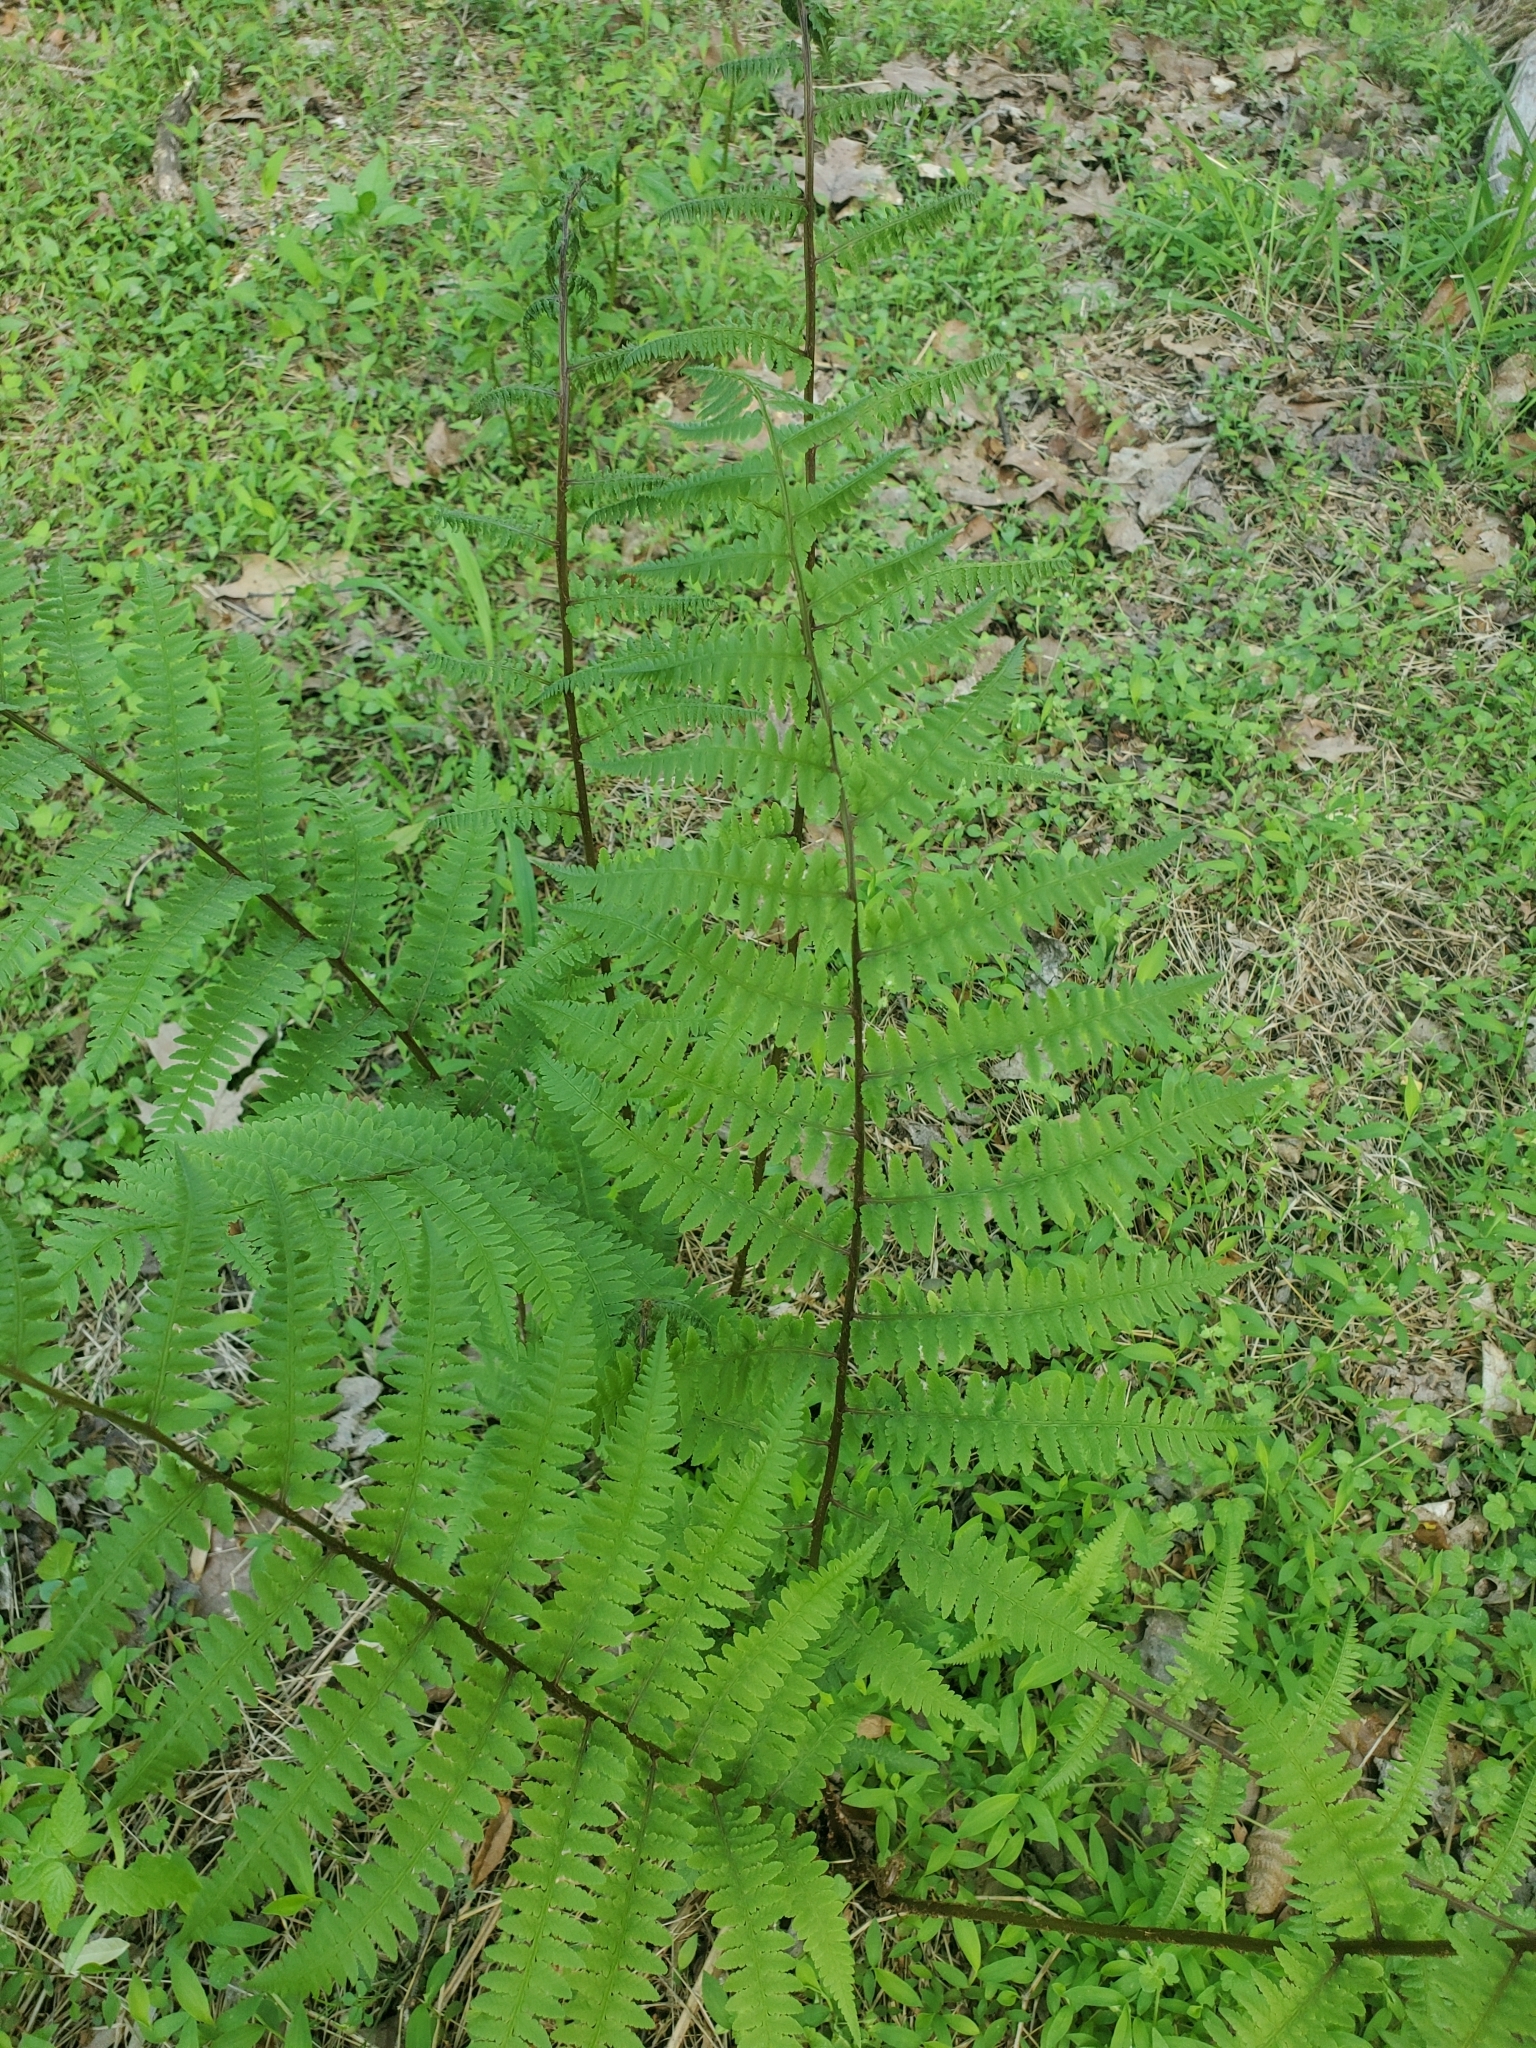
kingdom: Plantae
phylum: Tracheophyta
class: Polypodiopsida
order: Polypodiales
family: Athyriaceae
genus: Athyrium
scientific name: Athyrium asplenioides
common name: Southern lady fern
